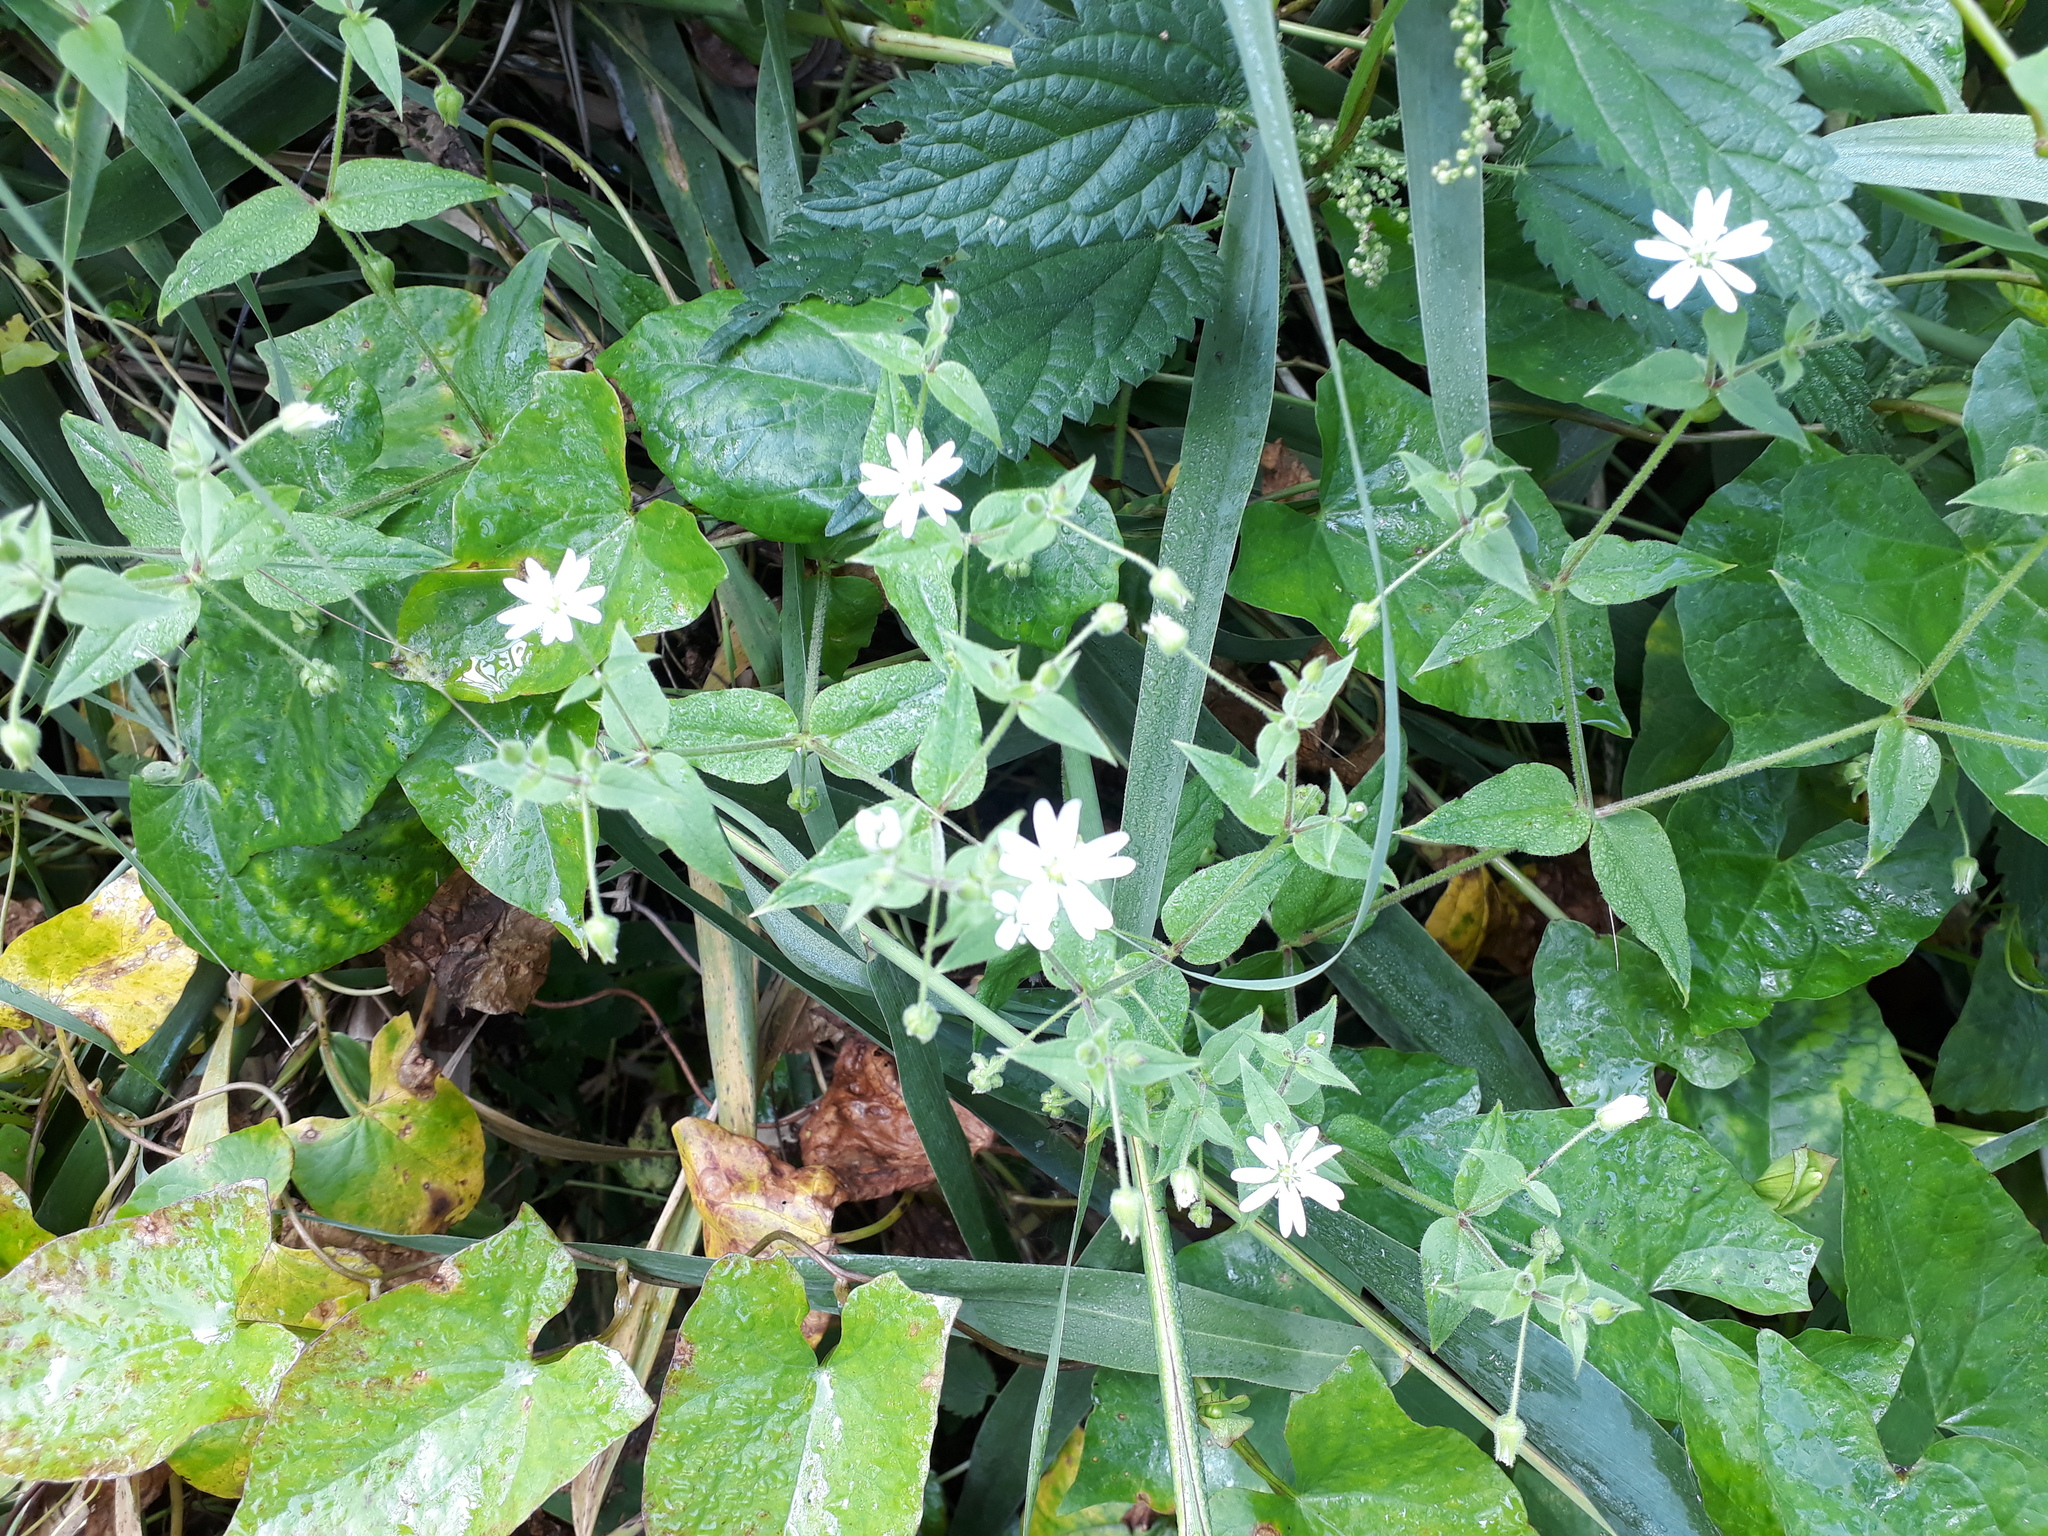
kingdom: Plantae
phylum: Tracheophyta
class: Magnoliopsida
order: Caryophyllales
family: Caryophyllaceae
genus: Stellaria
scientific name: Stellaria aquatica
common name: Water chickweed
